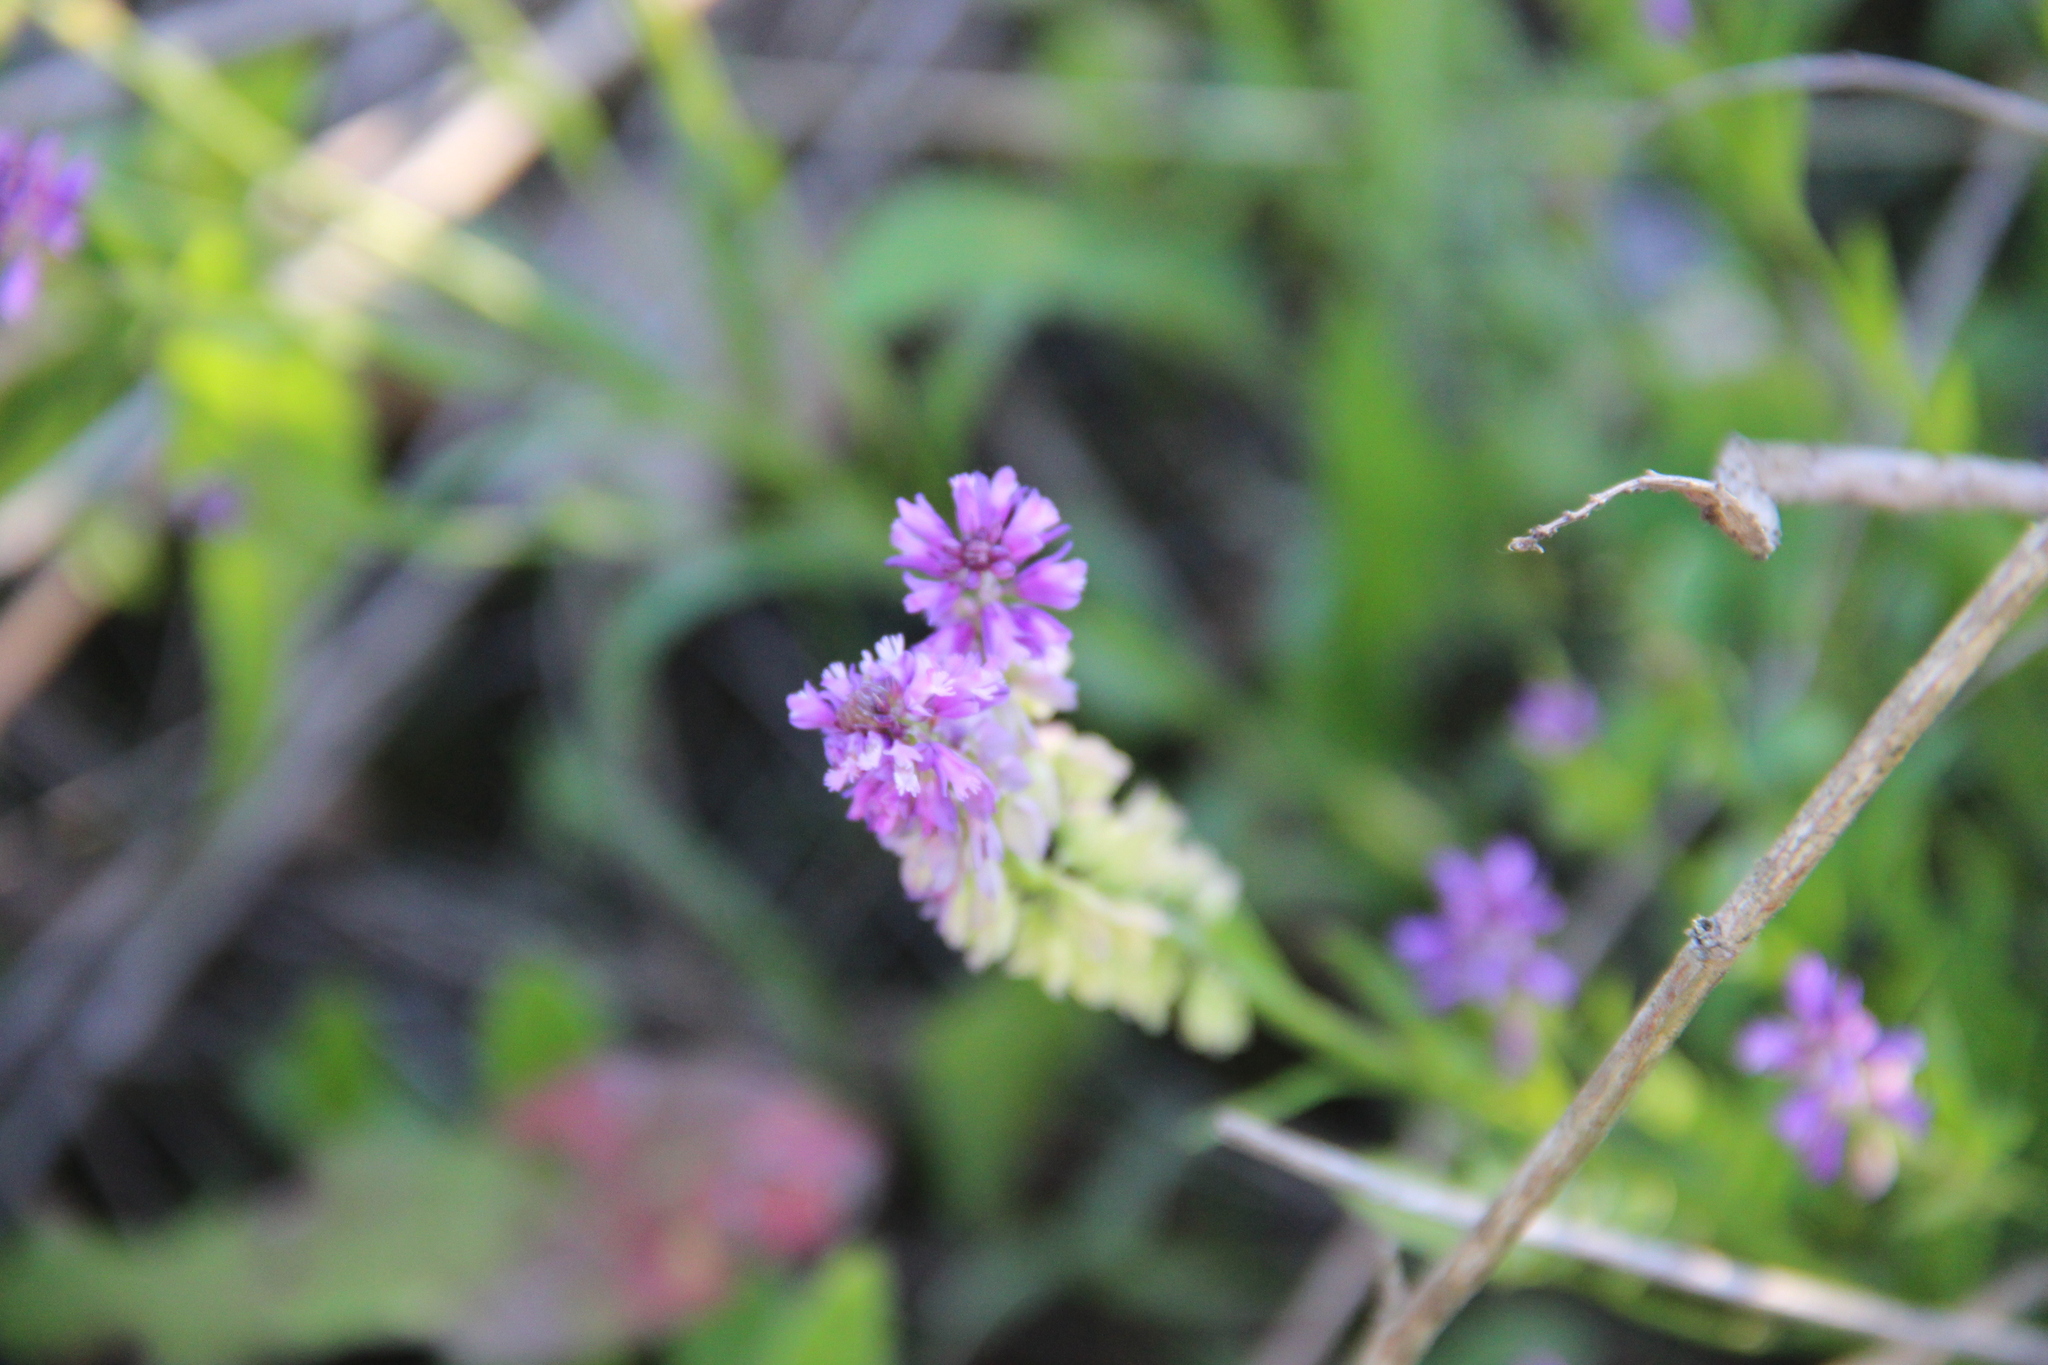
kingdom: Plantae
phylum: Tracheophyta
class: Magnoliopsida
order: Fabales
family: Polygalaceae
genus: Polygala
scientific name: Polygala comosa
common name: Tufted milkwort
